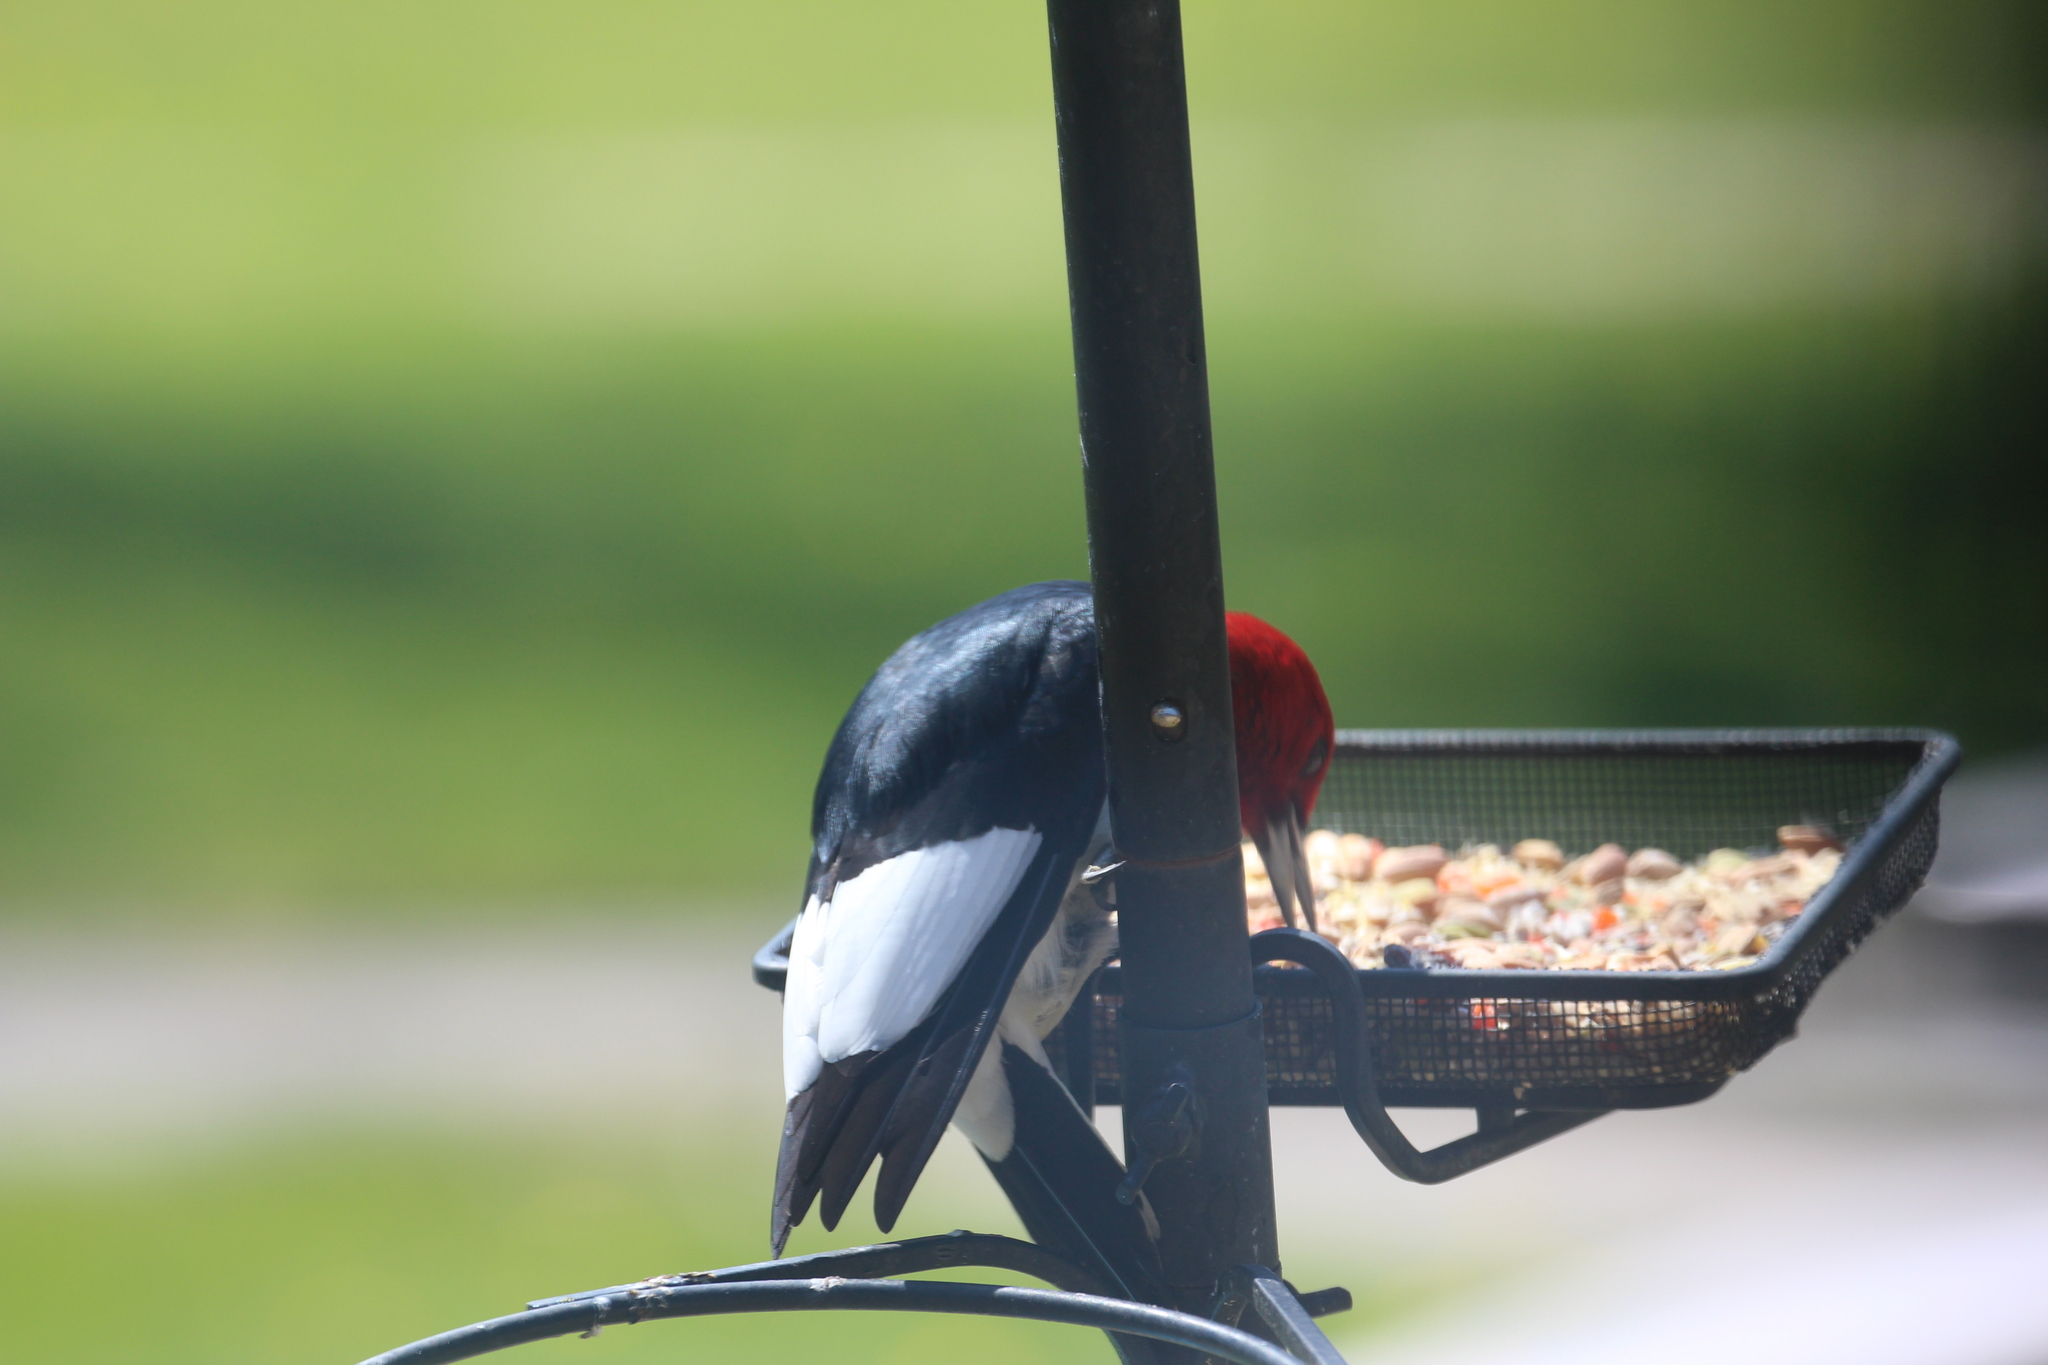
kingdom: Animalia
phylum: Chordata
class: Aves
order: Piciformes
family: Picidae
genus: Melanerpes
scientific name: Melanerpes erythrocephalus
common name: Red-headed woodpecker
